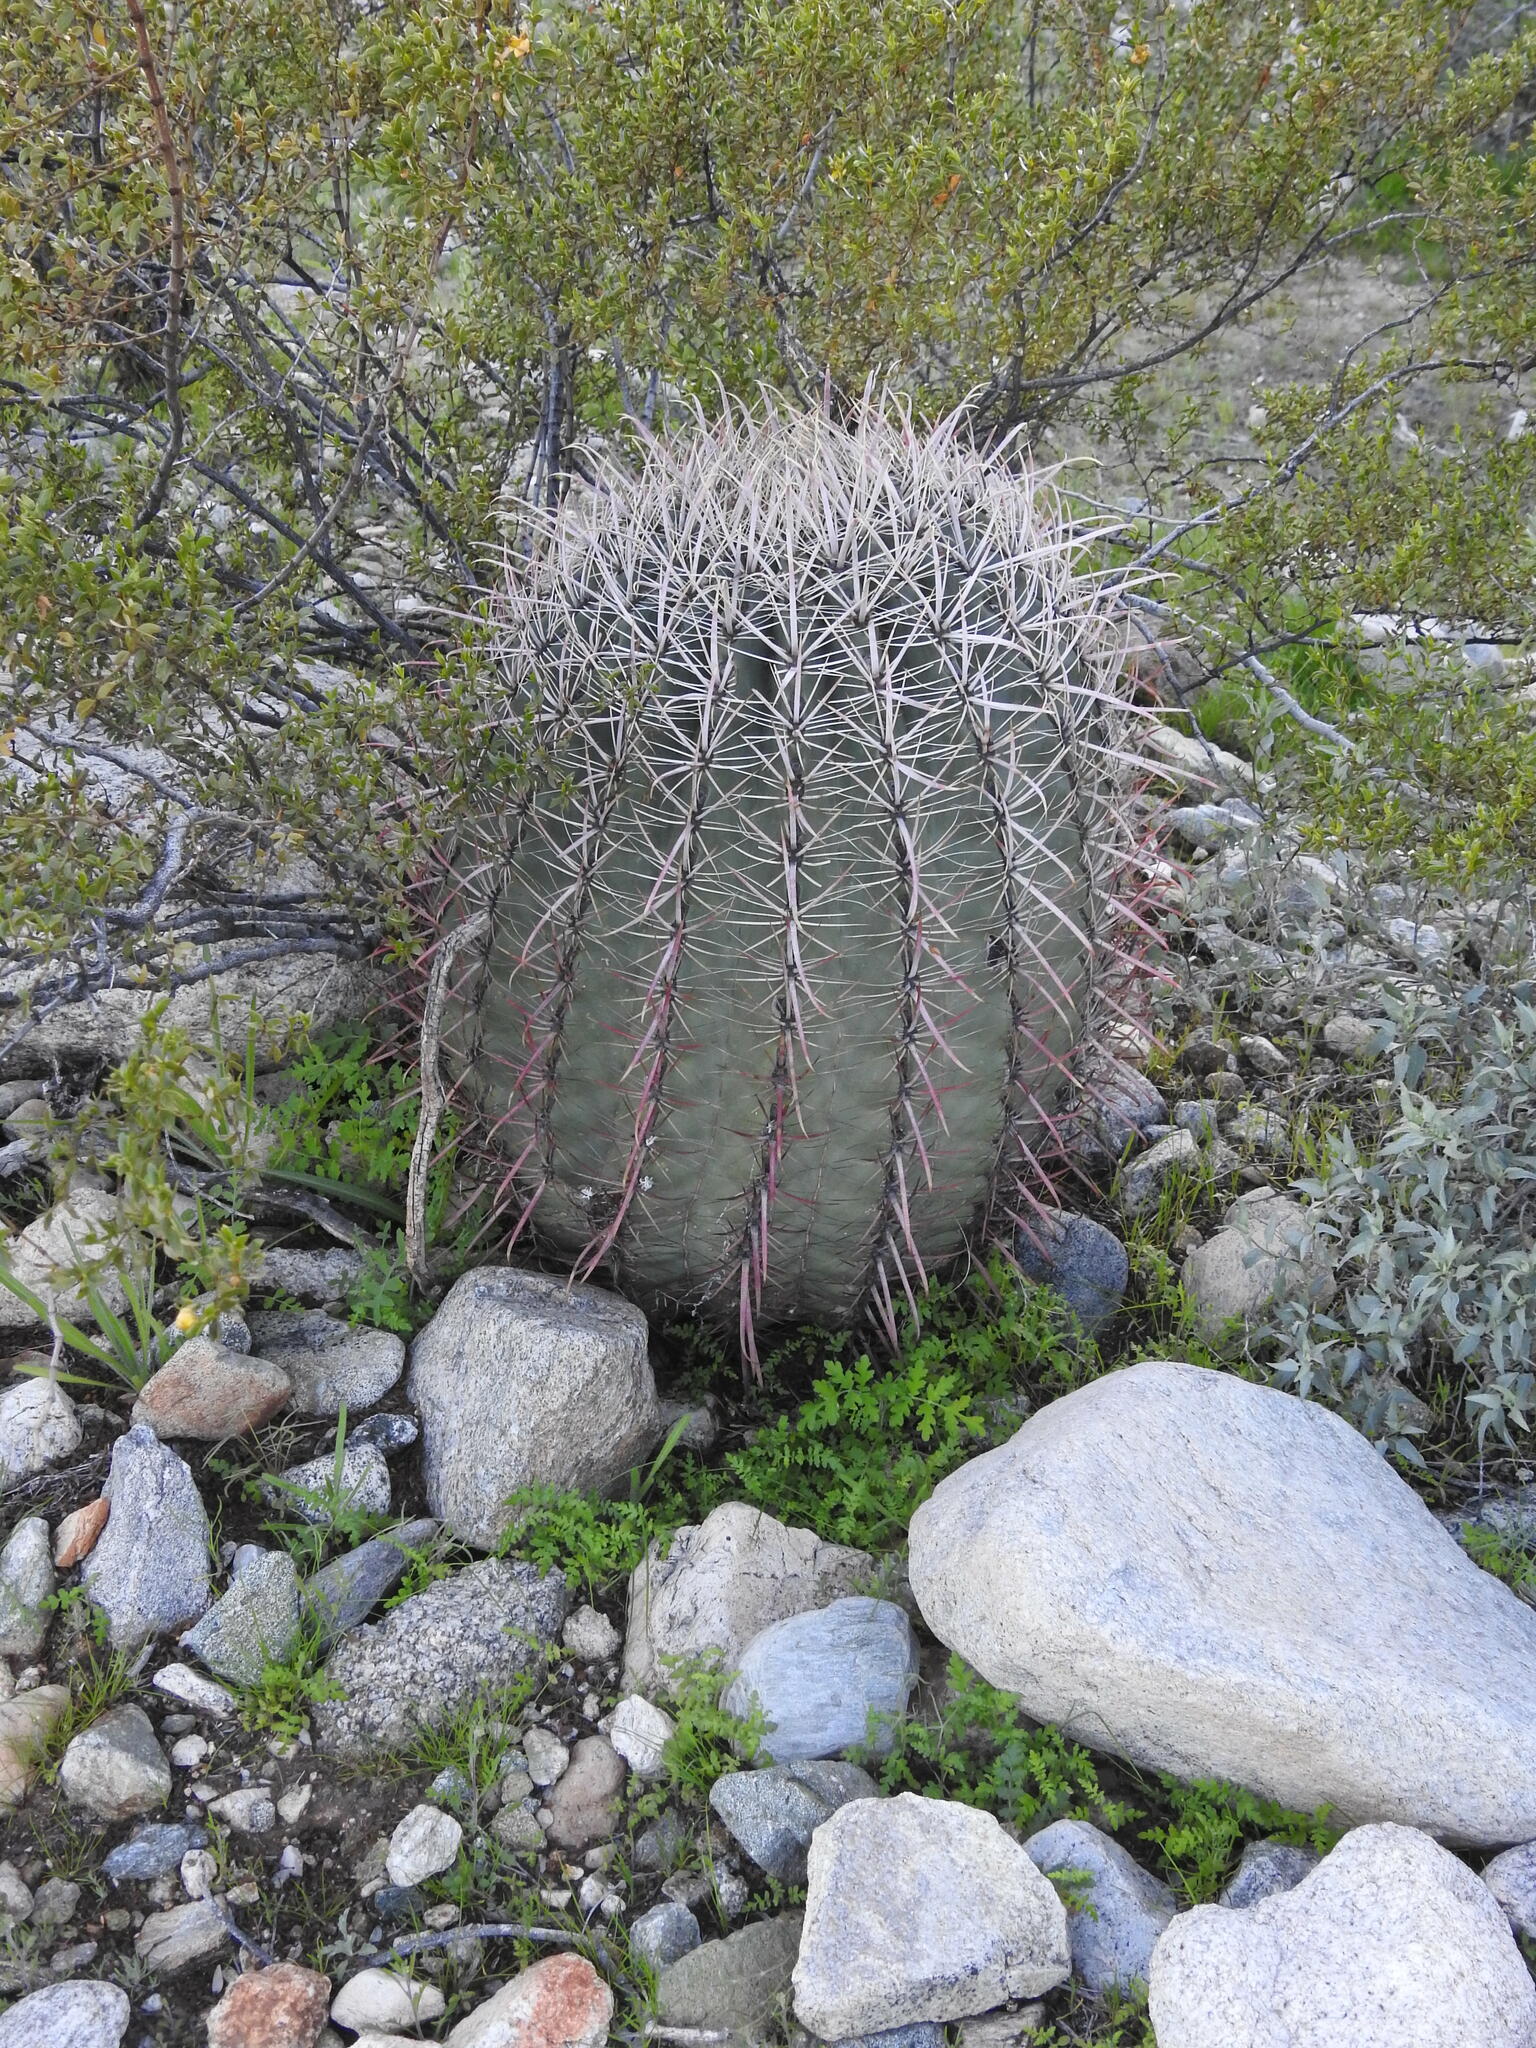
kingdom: Plantae
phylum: Tracheophyta
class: Magnoliopsida
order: Caryophyllales
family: Cactaceae
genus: Ferocactus
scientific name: Ferocactus cylindraceus
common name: California barrel cactus
